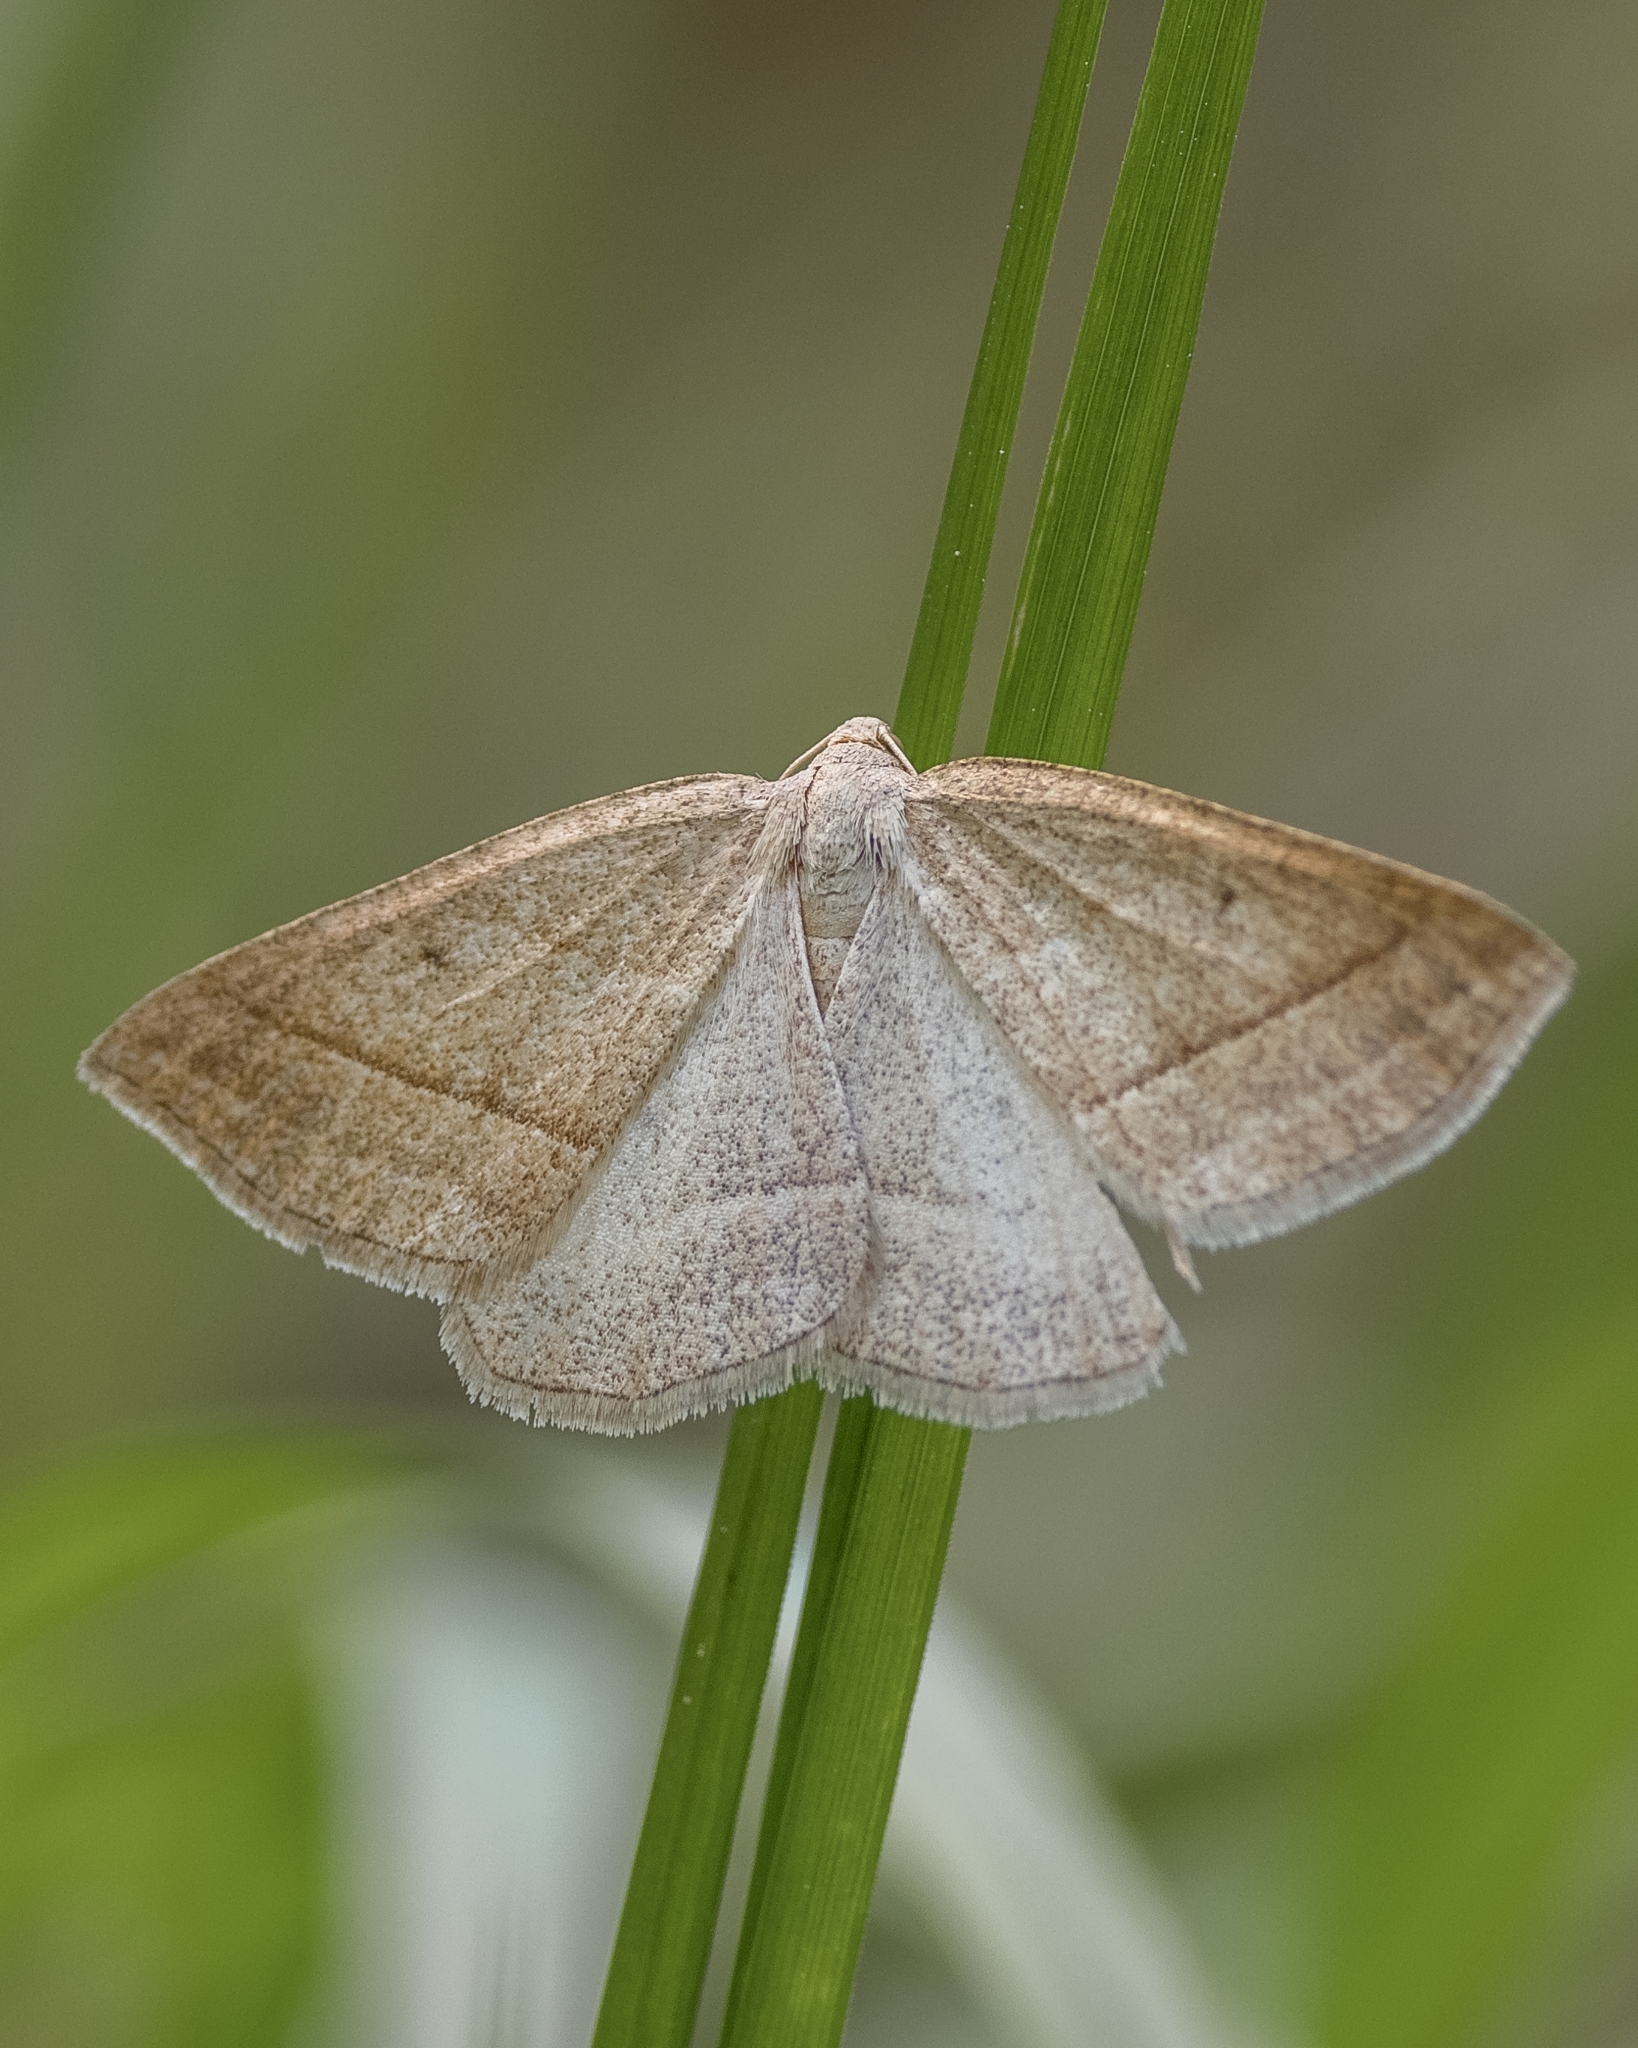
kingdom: Animalia
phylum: Arthropoda
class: Insecta
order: Lepidoptera
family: Pterophoridae
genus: Pterophorus
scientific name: Pterophorus Petrophora chlorosata
